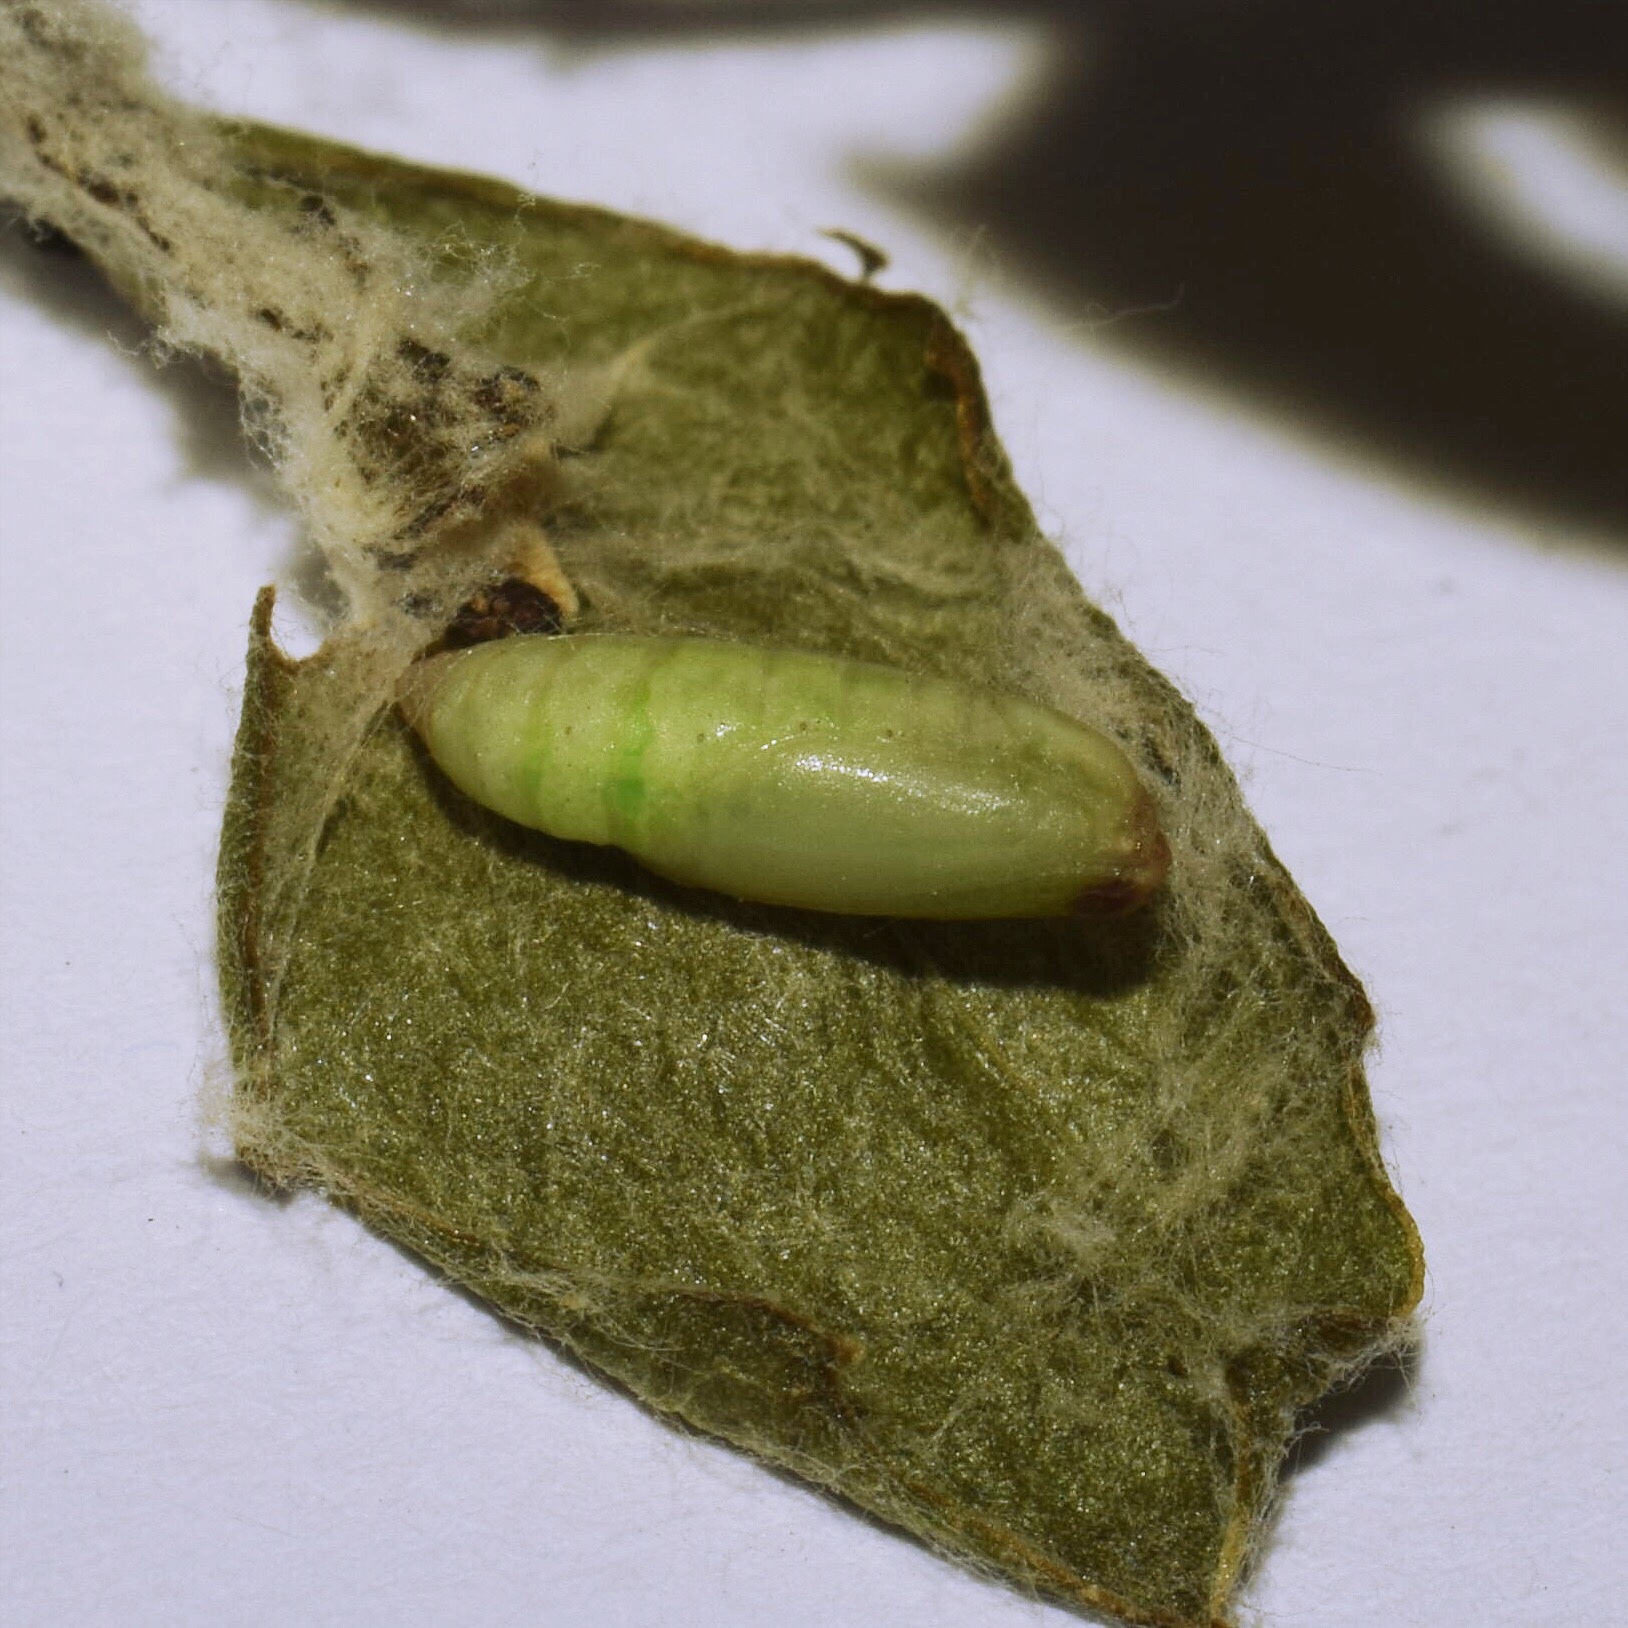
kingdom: Animalia
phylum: Arthropoda
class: Insecta
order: Lepidoptera
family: Geometridae
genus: Comostolopsis
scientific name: Comostolopsis germana
